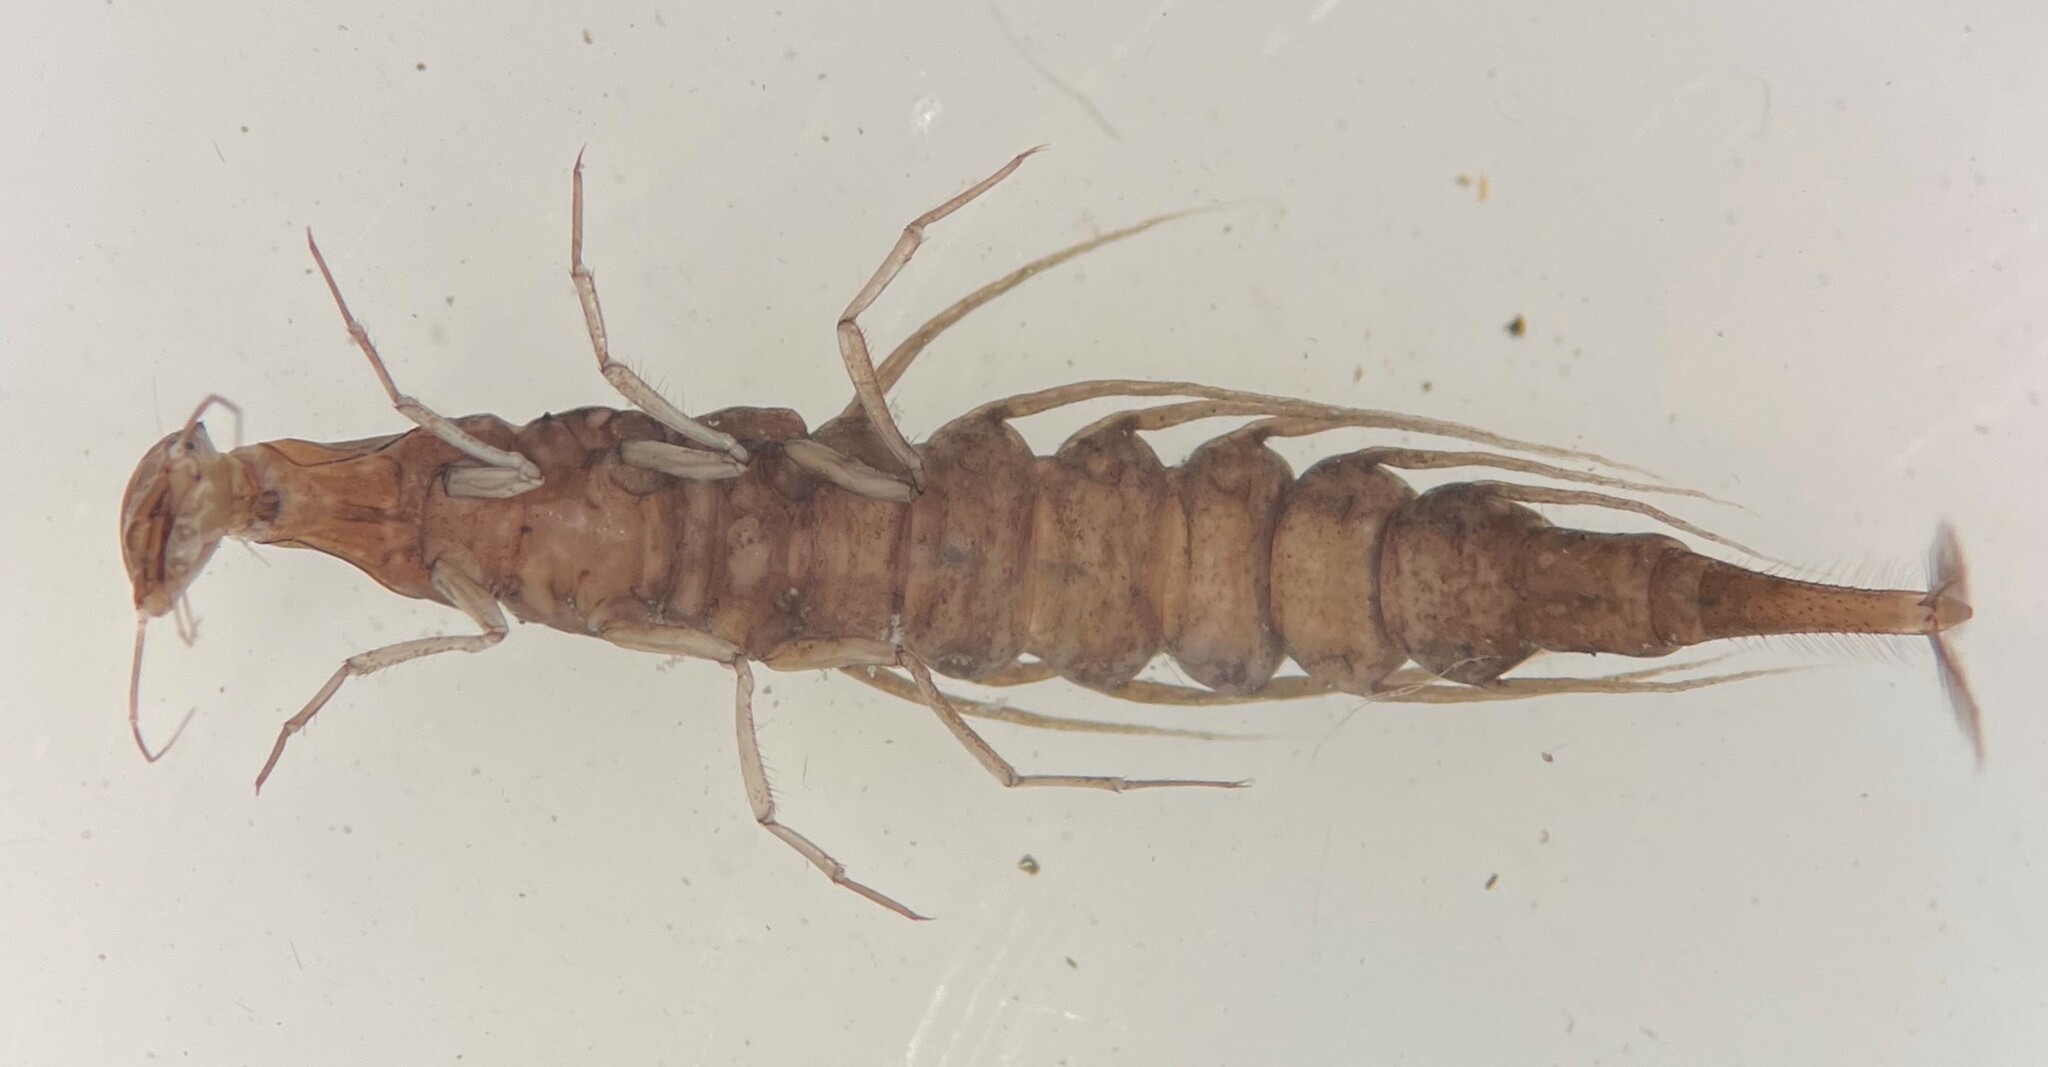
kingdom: Animalia
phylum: Arthropoda
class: Insecta
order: Coleoptera
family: Dytiscidae
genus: Coptotomus
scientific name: Coptotomus
